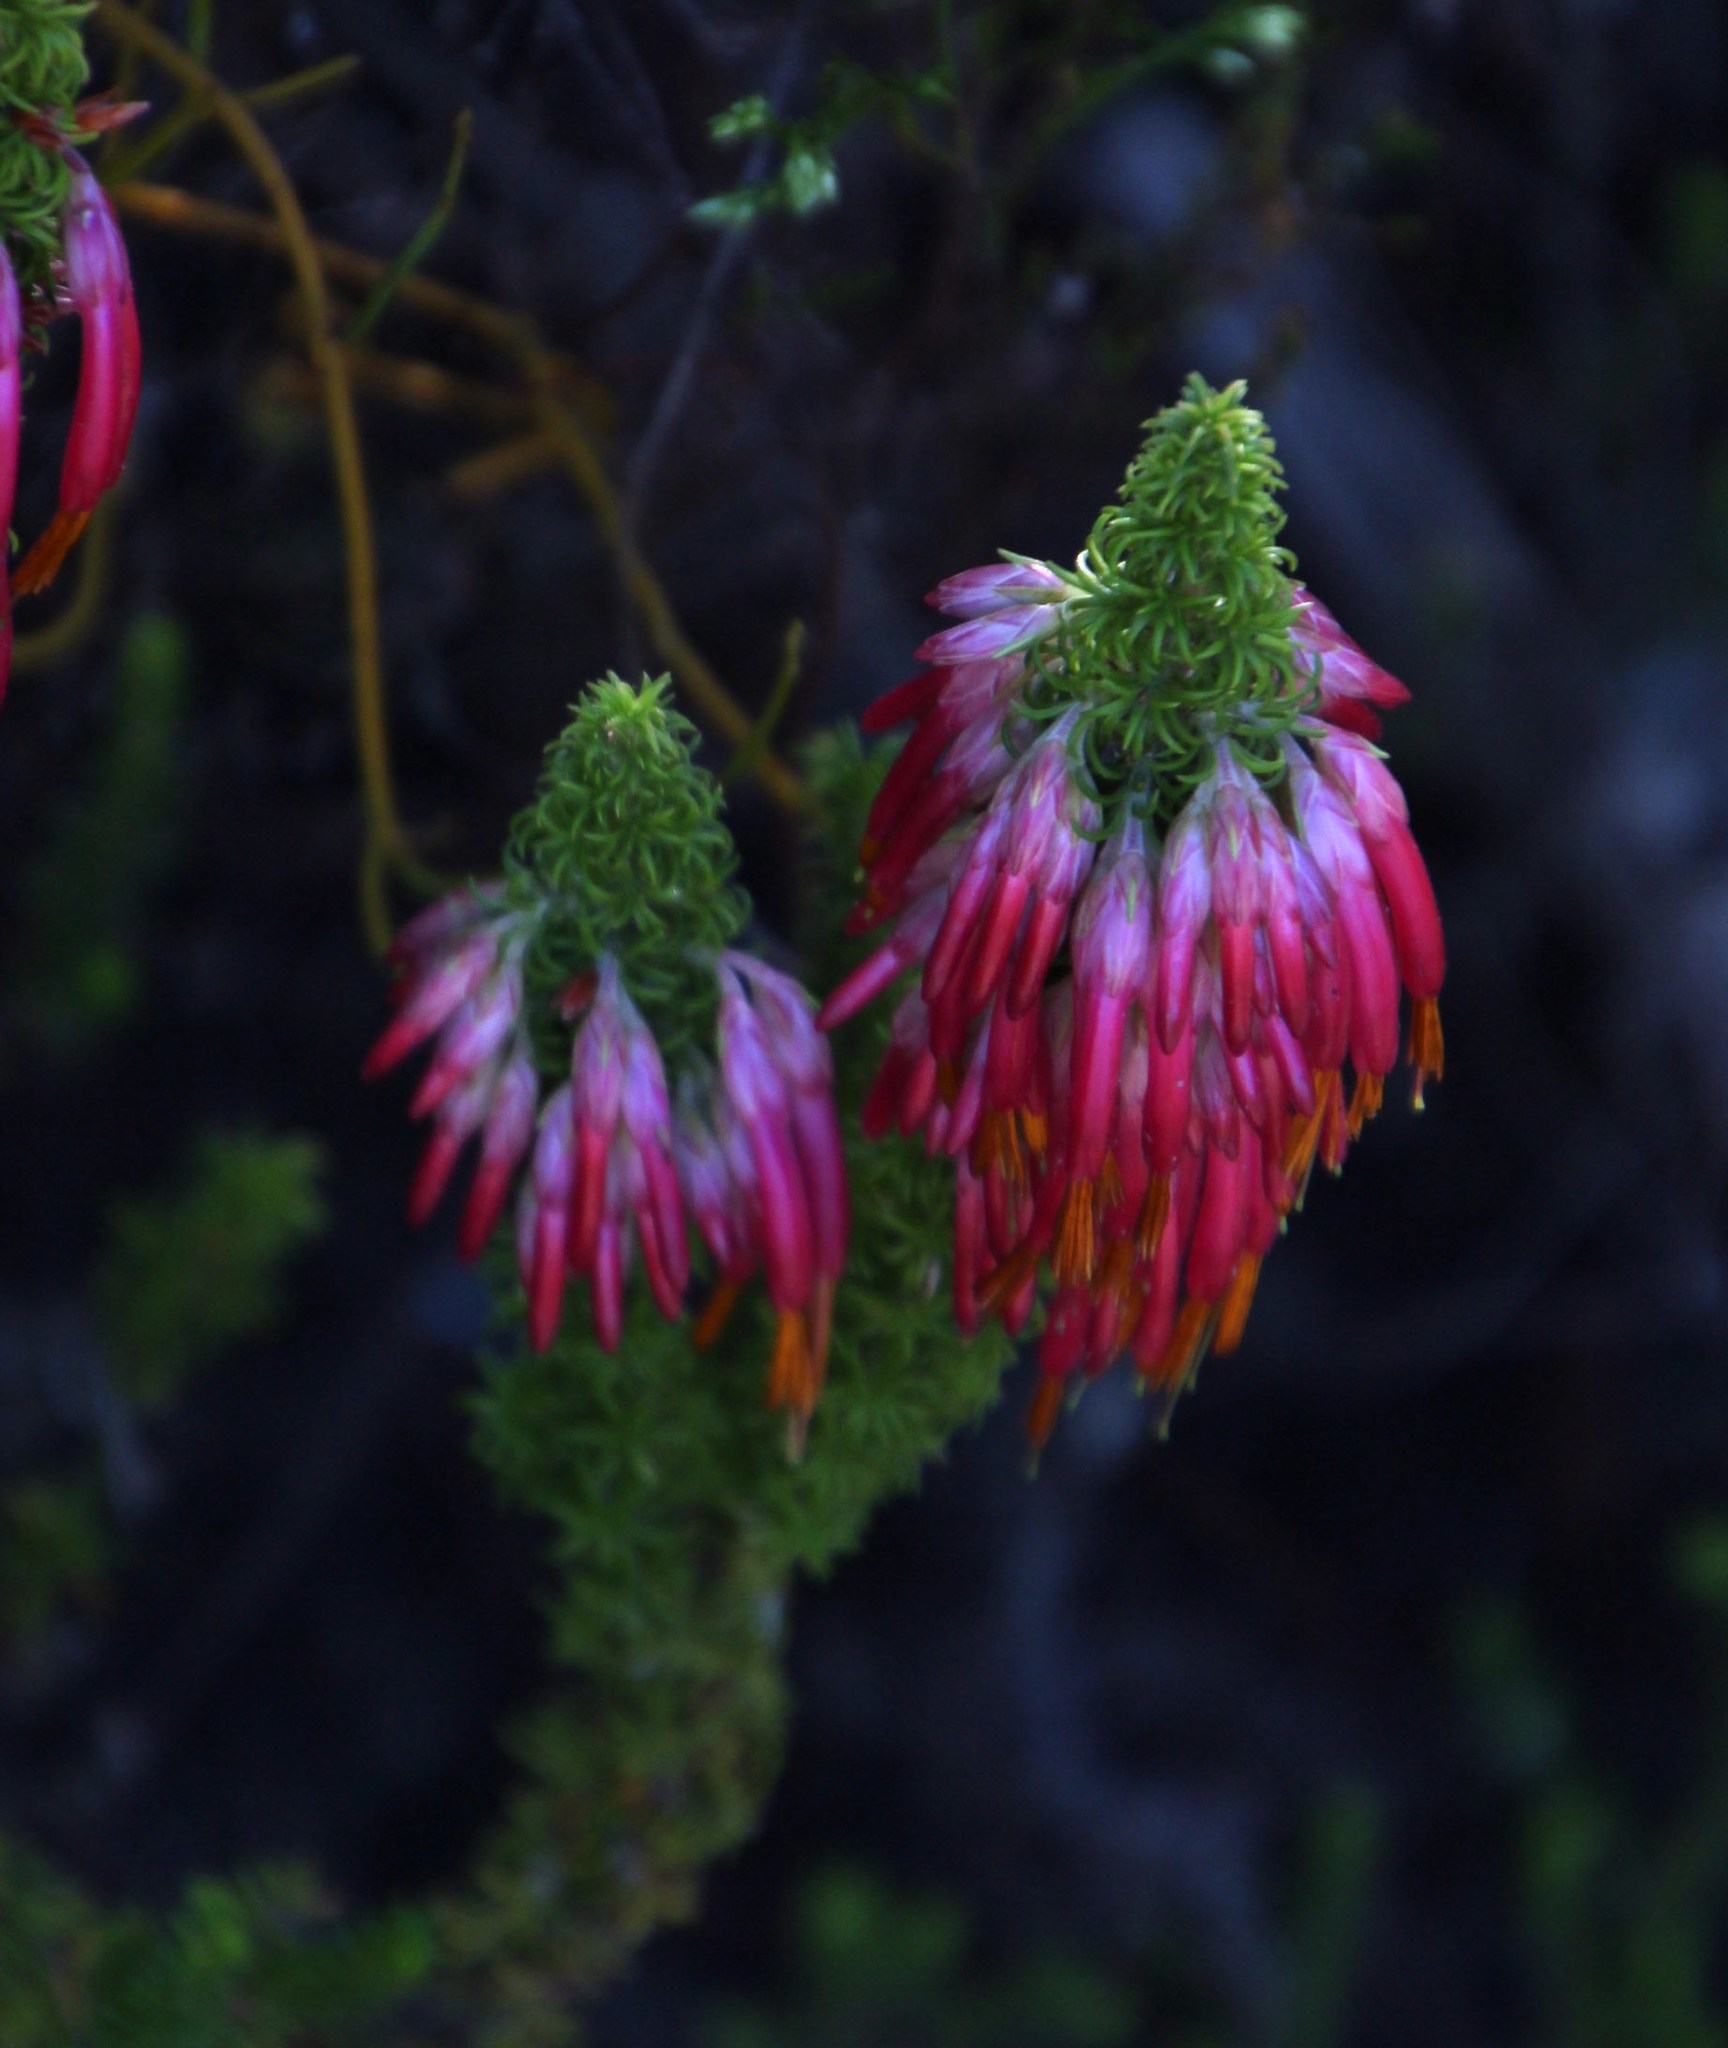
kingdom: Plantae
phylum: Tracheophyta
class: Magnoliopsida
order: Ericales
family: Ericaceae
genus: Erica
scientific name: Erica coccinea
